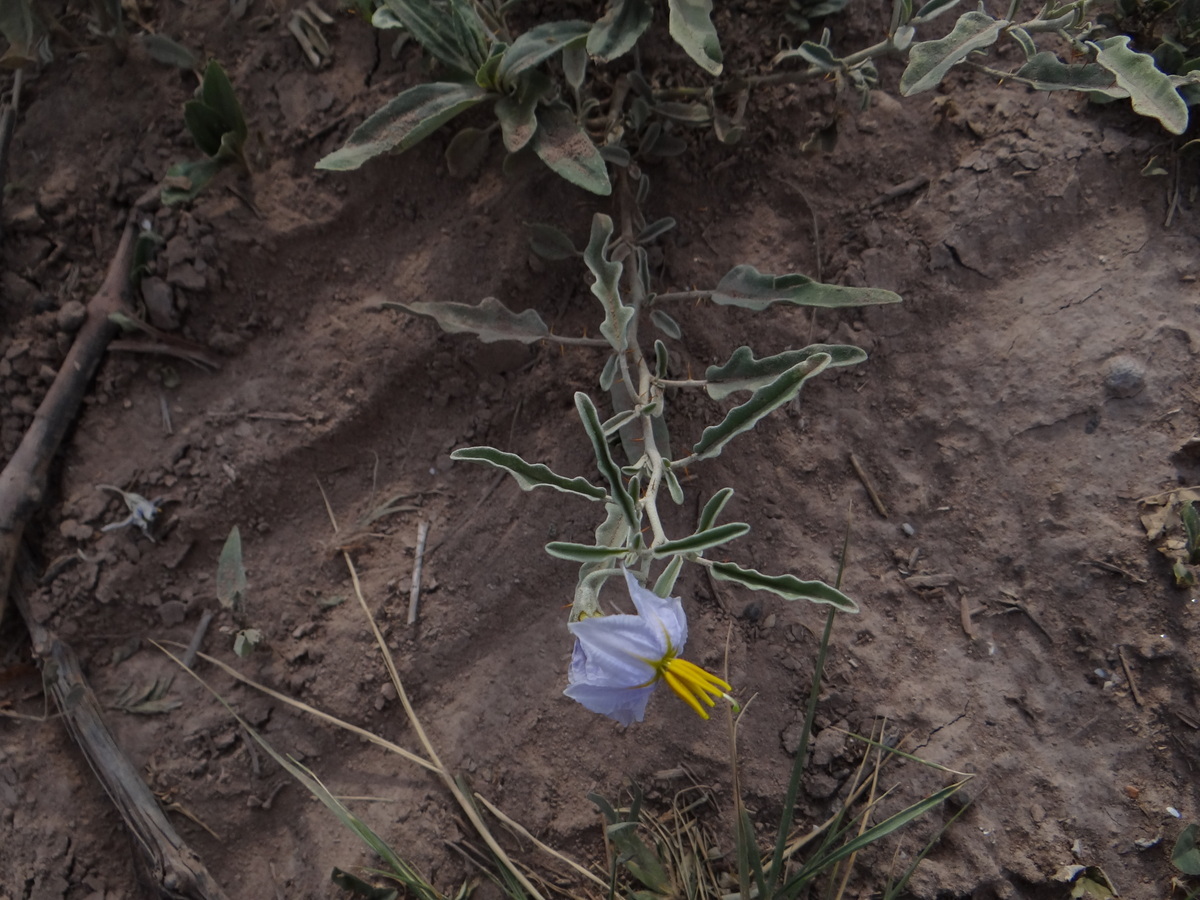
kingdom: Plantae
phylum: Tracheophyta
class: Magnoliopsida
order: Solanales
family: Solanaceae
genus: Solanum
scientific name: Solanum elaeagnifolium
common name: Silverleaf nightshade
